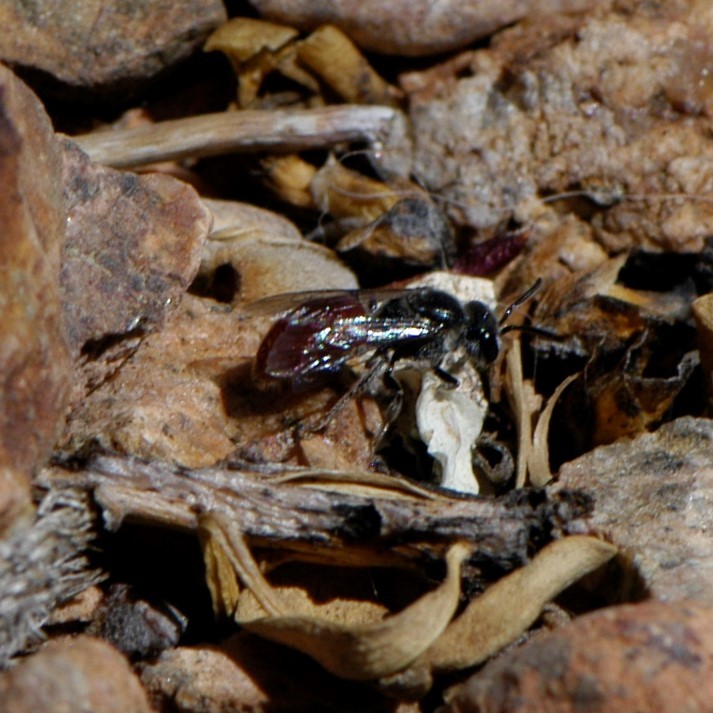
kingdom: Animalia
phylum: Arthropoda
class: Insecta
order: Hymenoptera
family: Halictidae
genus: Sphecodes
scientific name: Sphecodes
